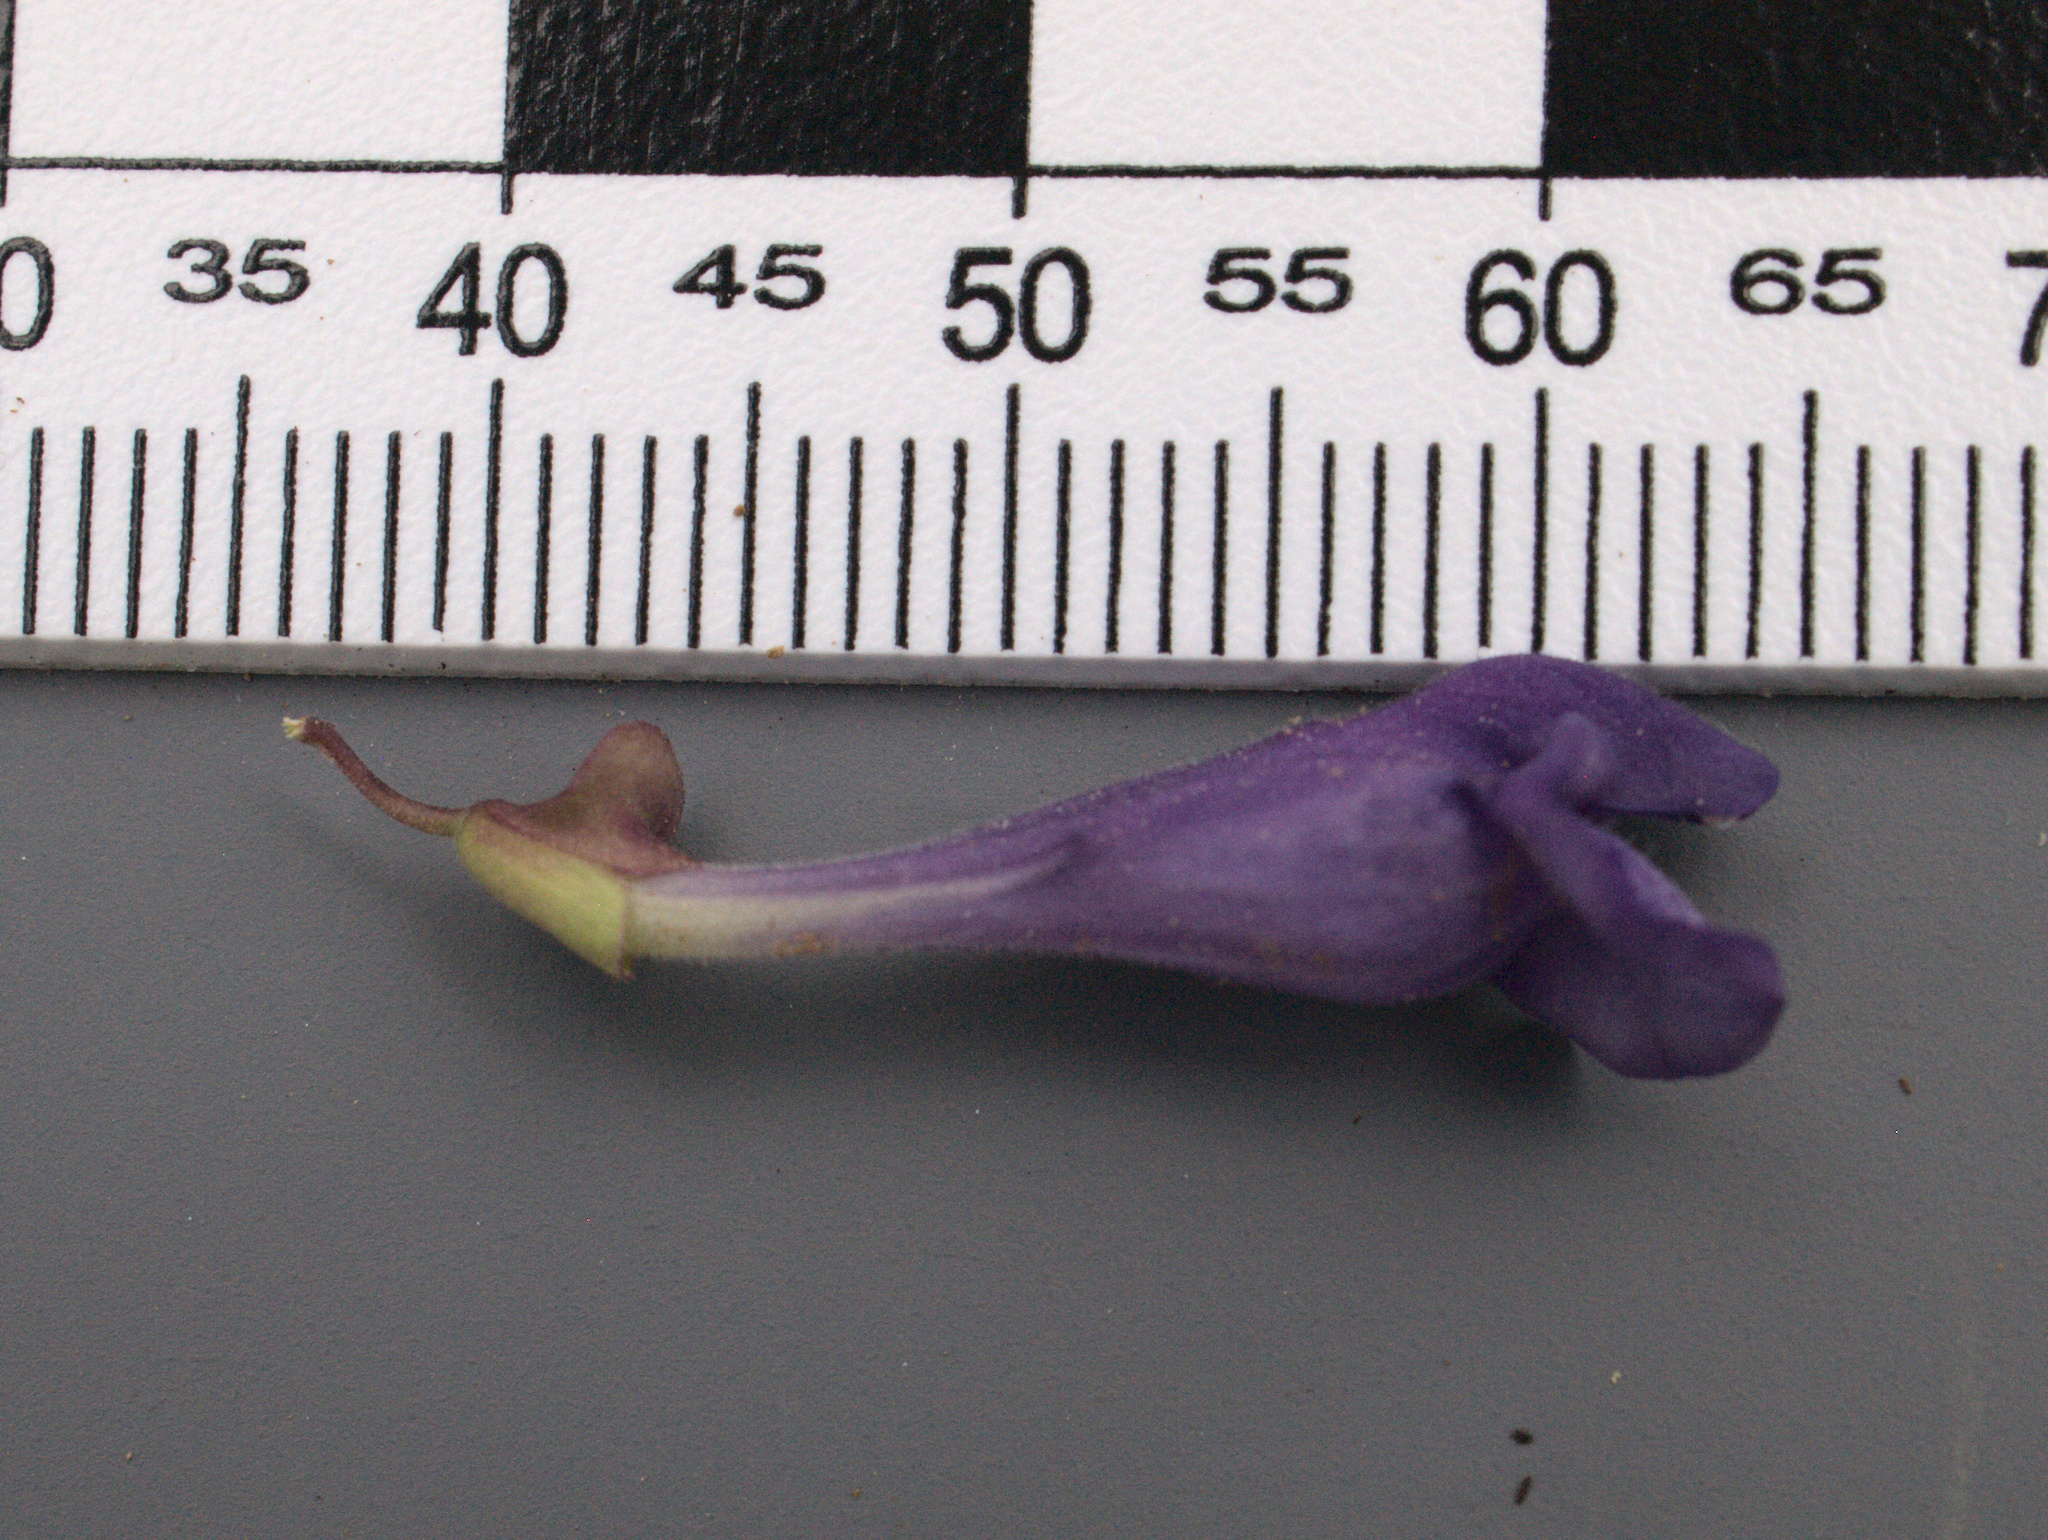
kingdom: Plantae
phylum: Tracheophyta
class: Magnoliopsida
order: Lamiales
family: Lamiaceae
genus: Scutellaria
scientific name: Scutellaria angustifolia
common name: Narrow-leaved skullcap
